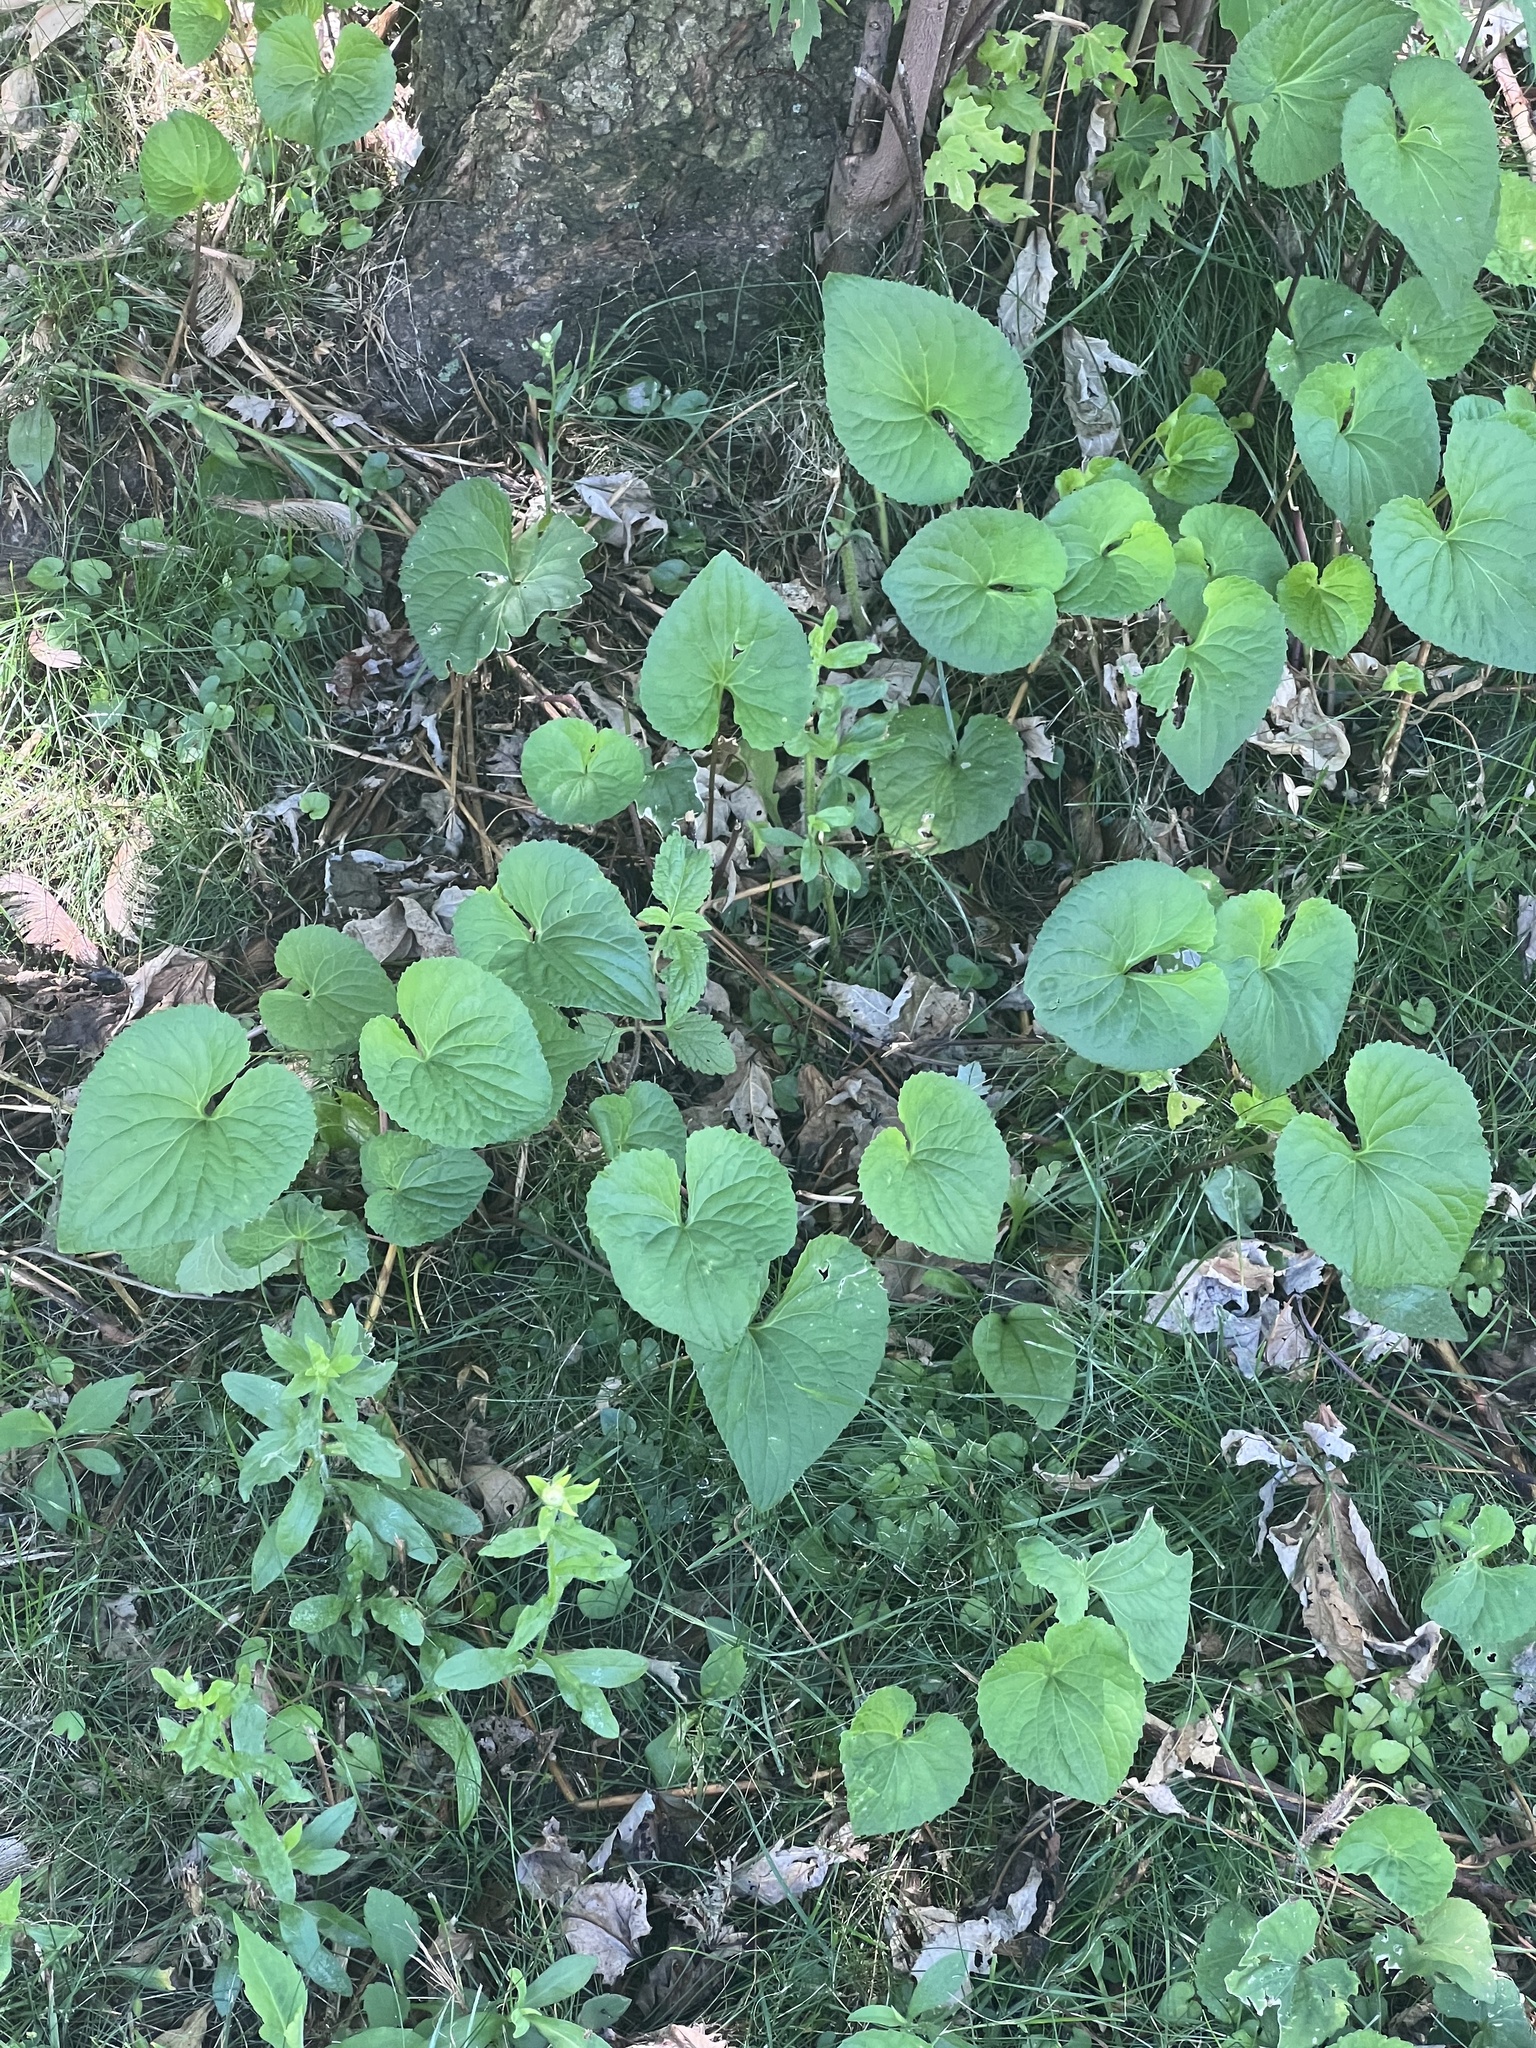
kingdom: Plantae
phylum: Tracheophyta
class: Magnoliopsida
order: Brassicales
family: Brassicaceae
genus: Alliaria
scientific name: Alliaria petiolata
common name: Garlic mustard
